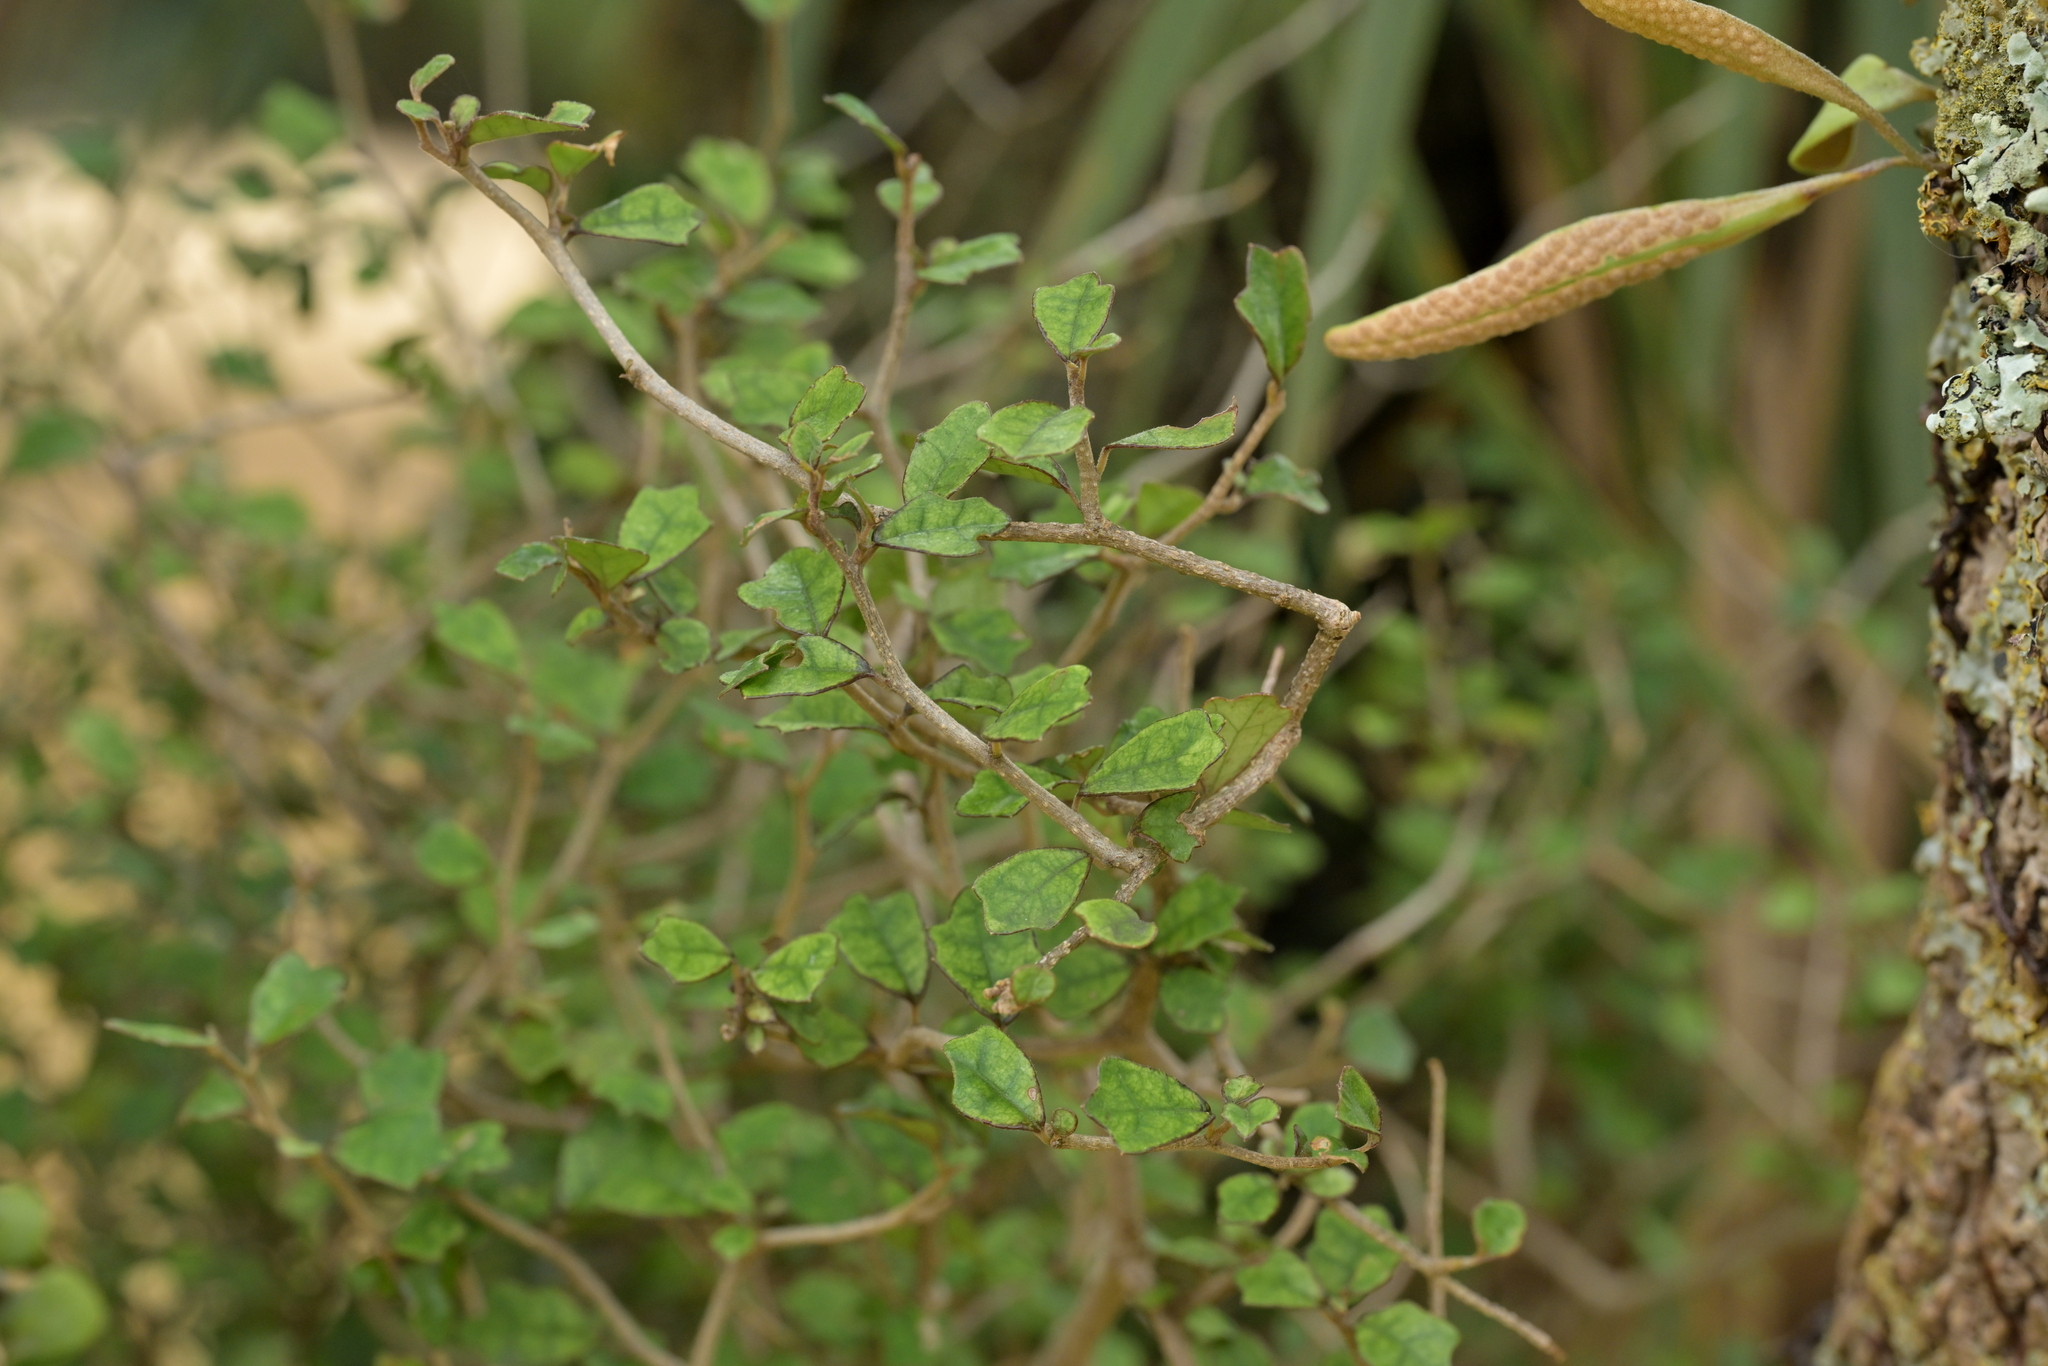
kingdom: Plantae
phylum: Tracheophyta
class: Magnoliopsida
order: Apiales
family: Pennantiaceae
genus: Pennantia
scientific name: Pennantia corymbosa
